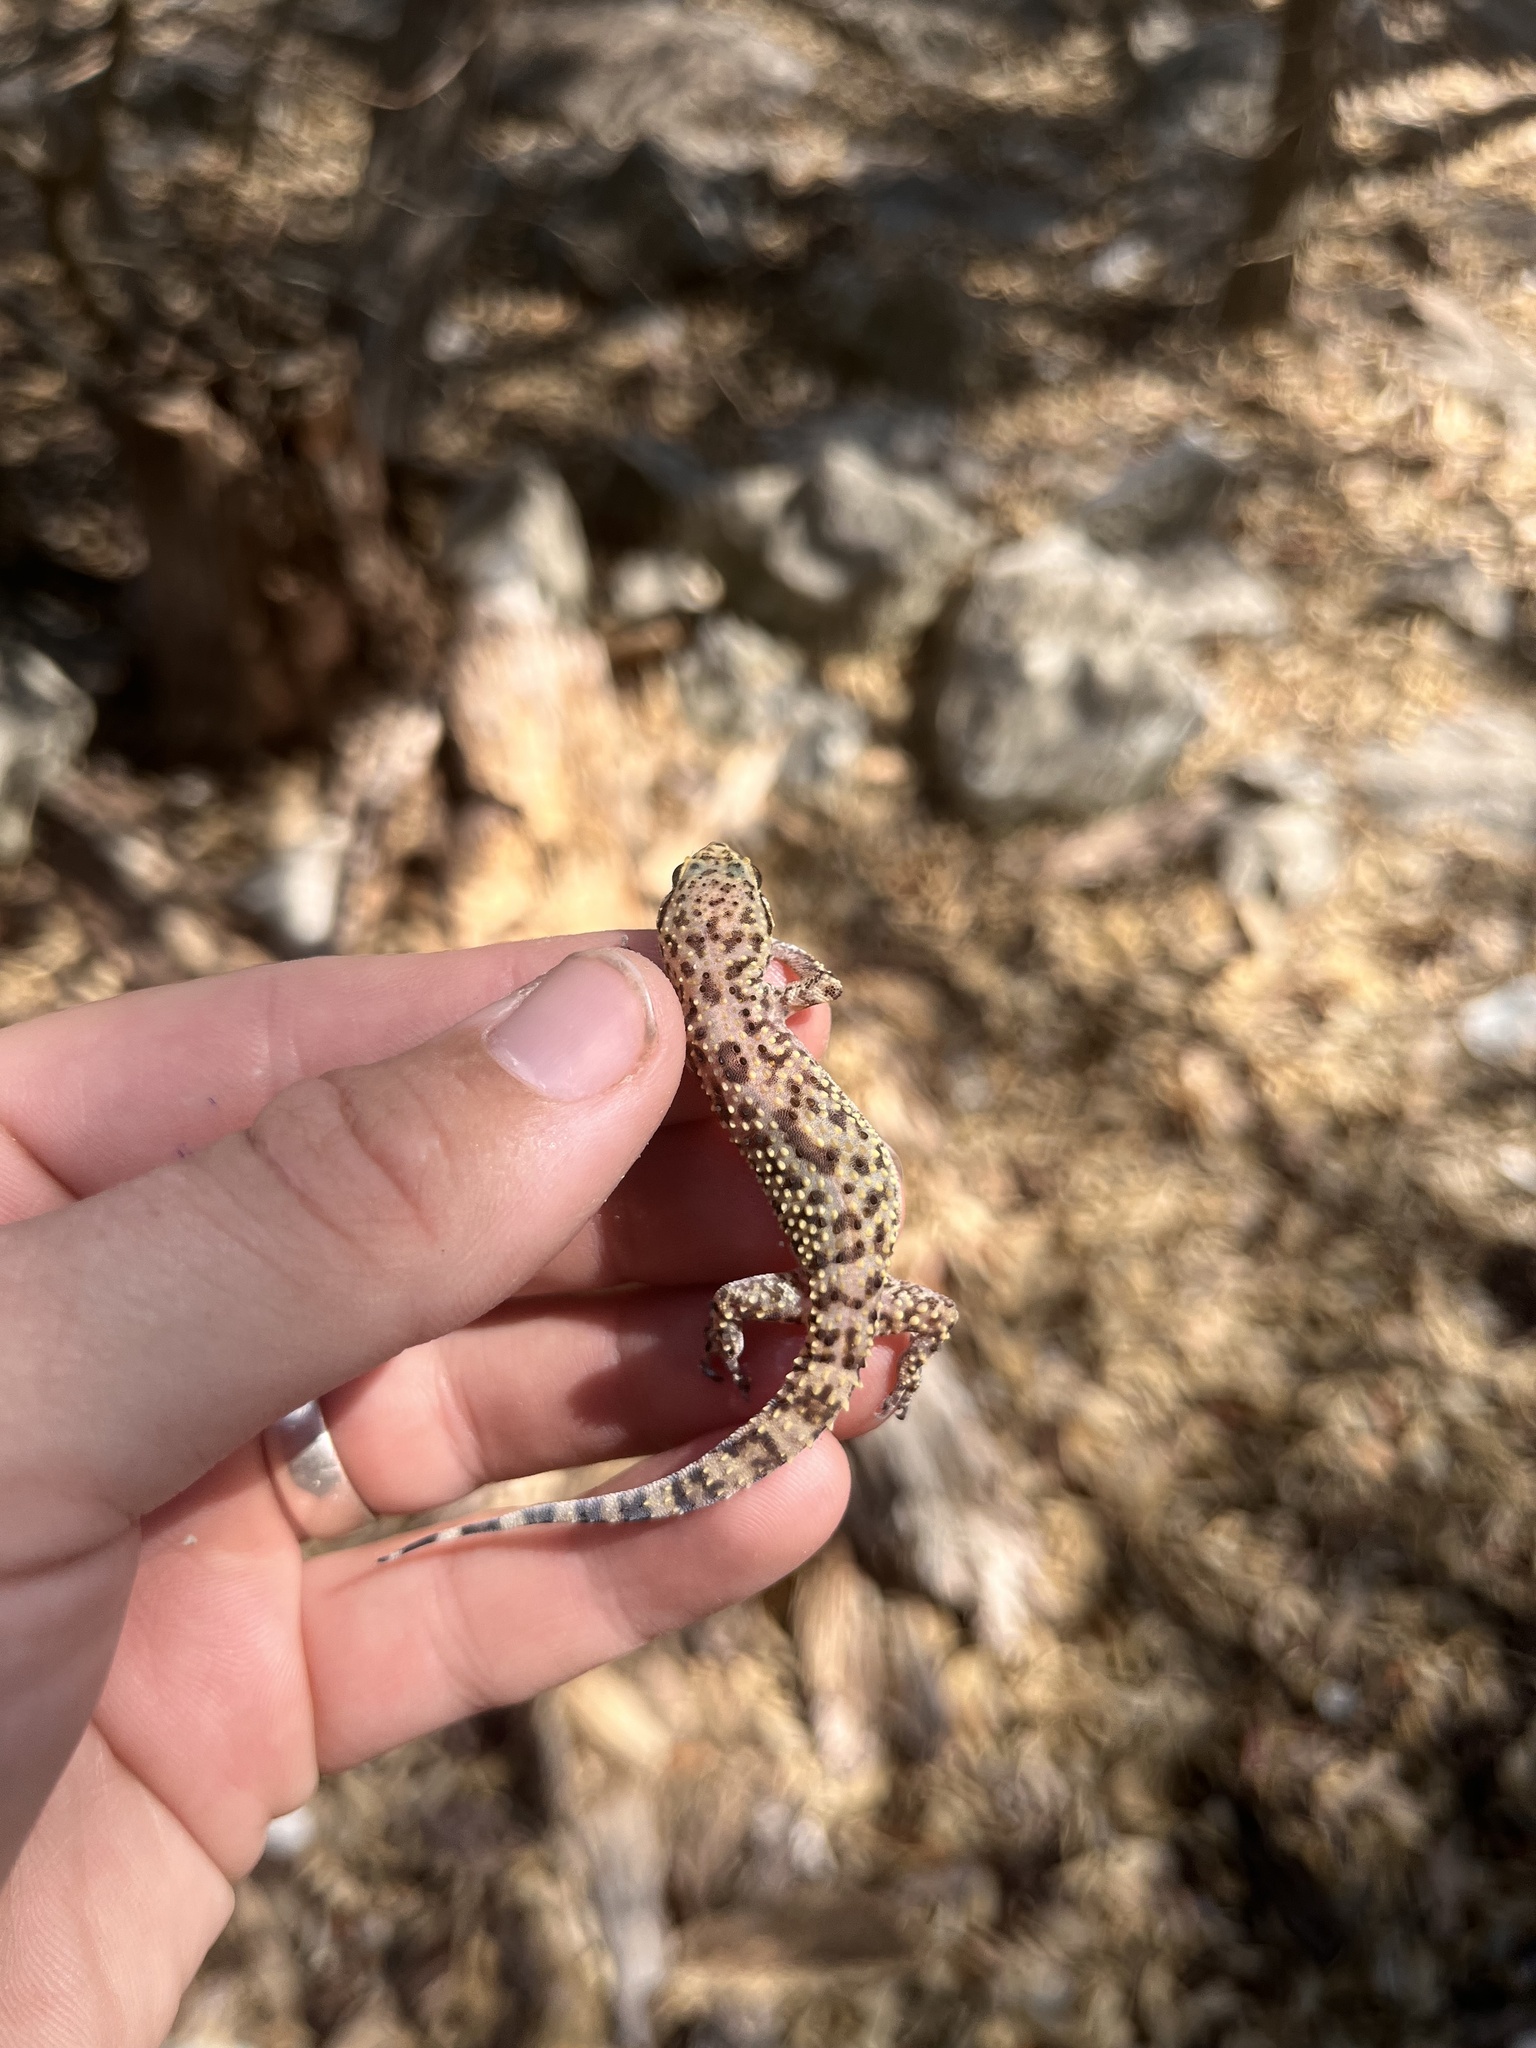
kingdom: Animalia
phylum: Chordata
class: Squamata
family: Gekkonidae
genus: Hemidactylus
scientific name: Hemidactylus turcicus
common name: Turkish gecko
